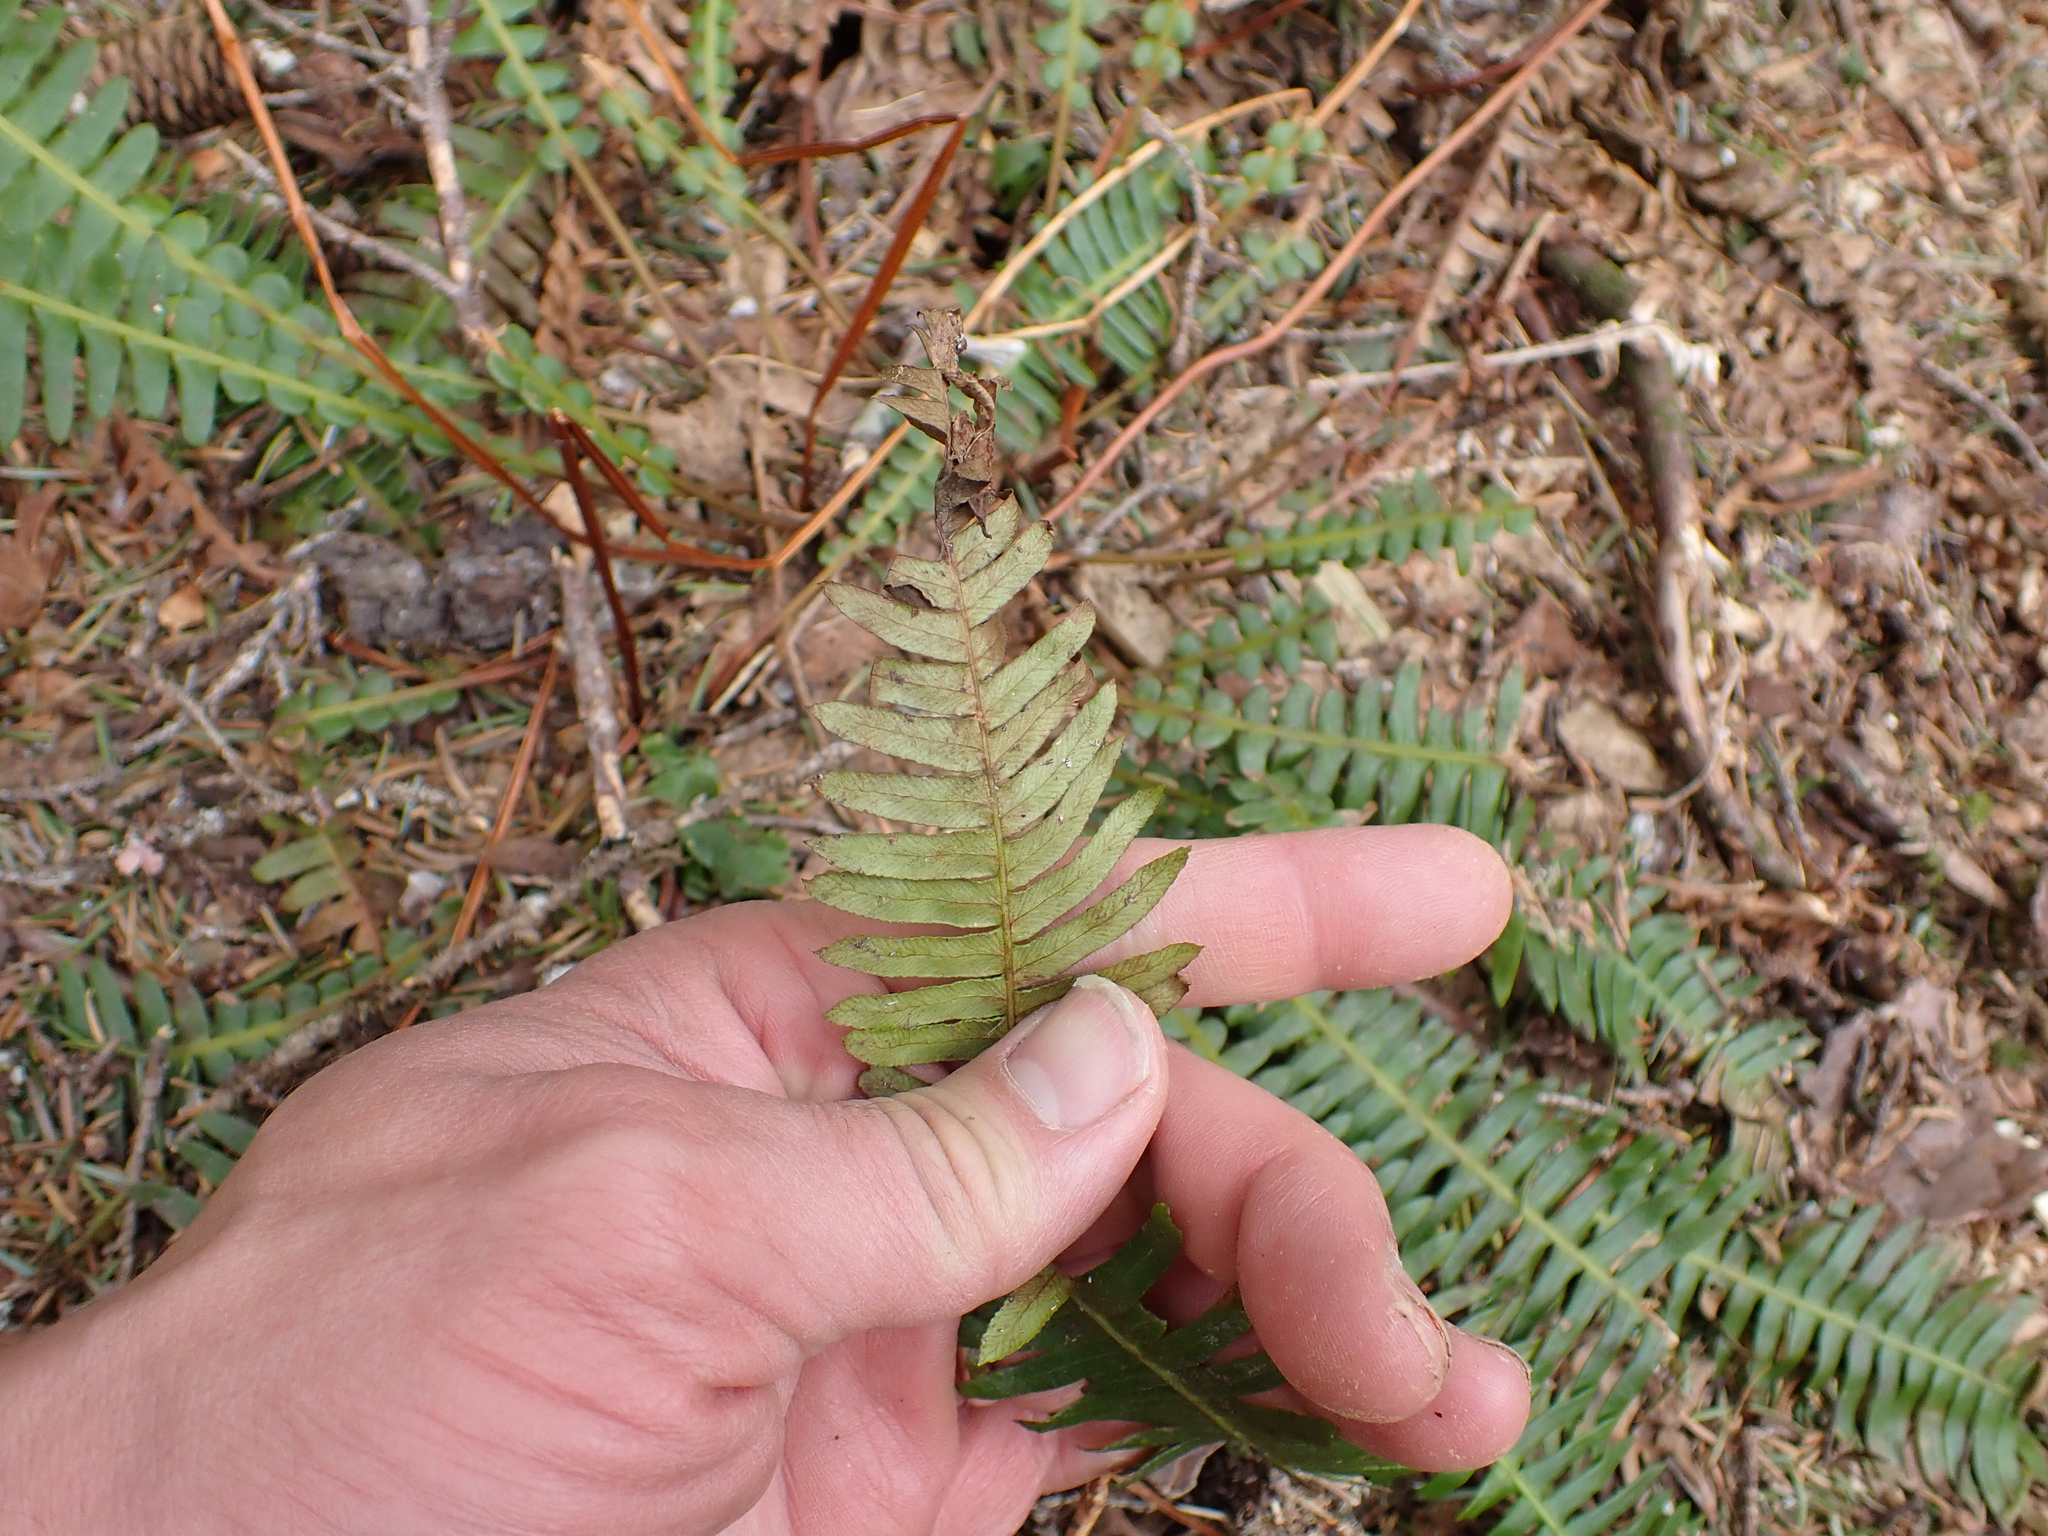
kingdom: Plantae
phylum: Tracheophyta
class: Polypodiopsida
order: Polypodiales
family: Blechnaceae
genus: Struthiopteris
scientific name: Struthiopteris spicant
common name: Deer fern
